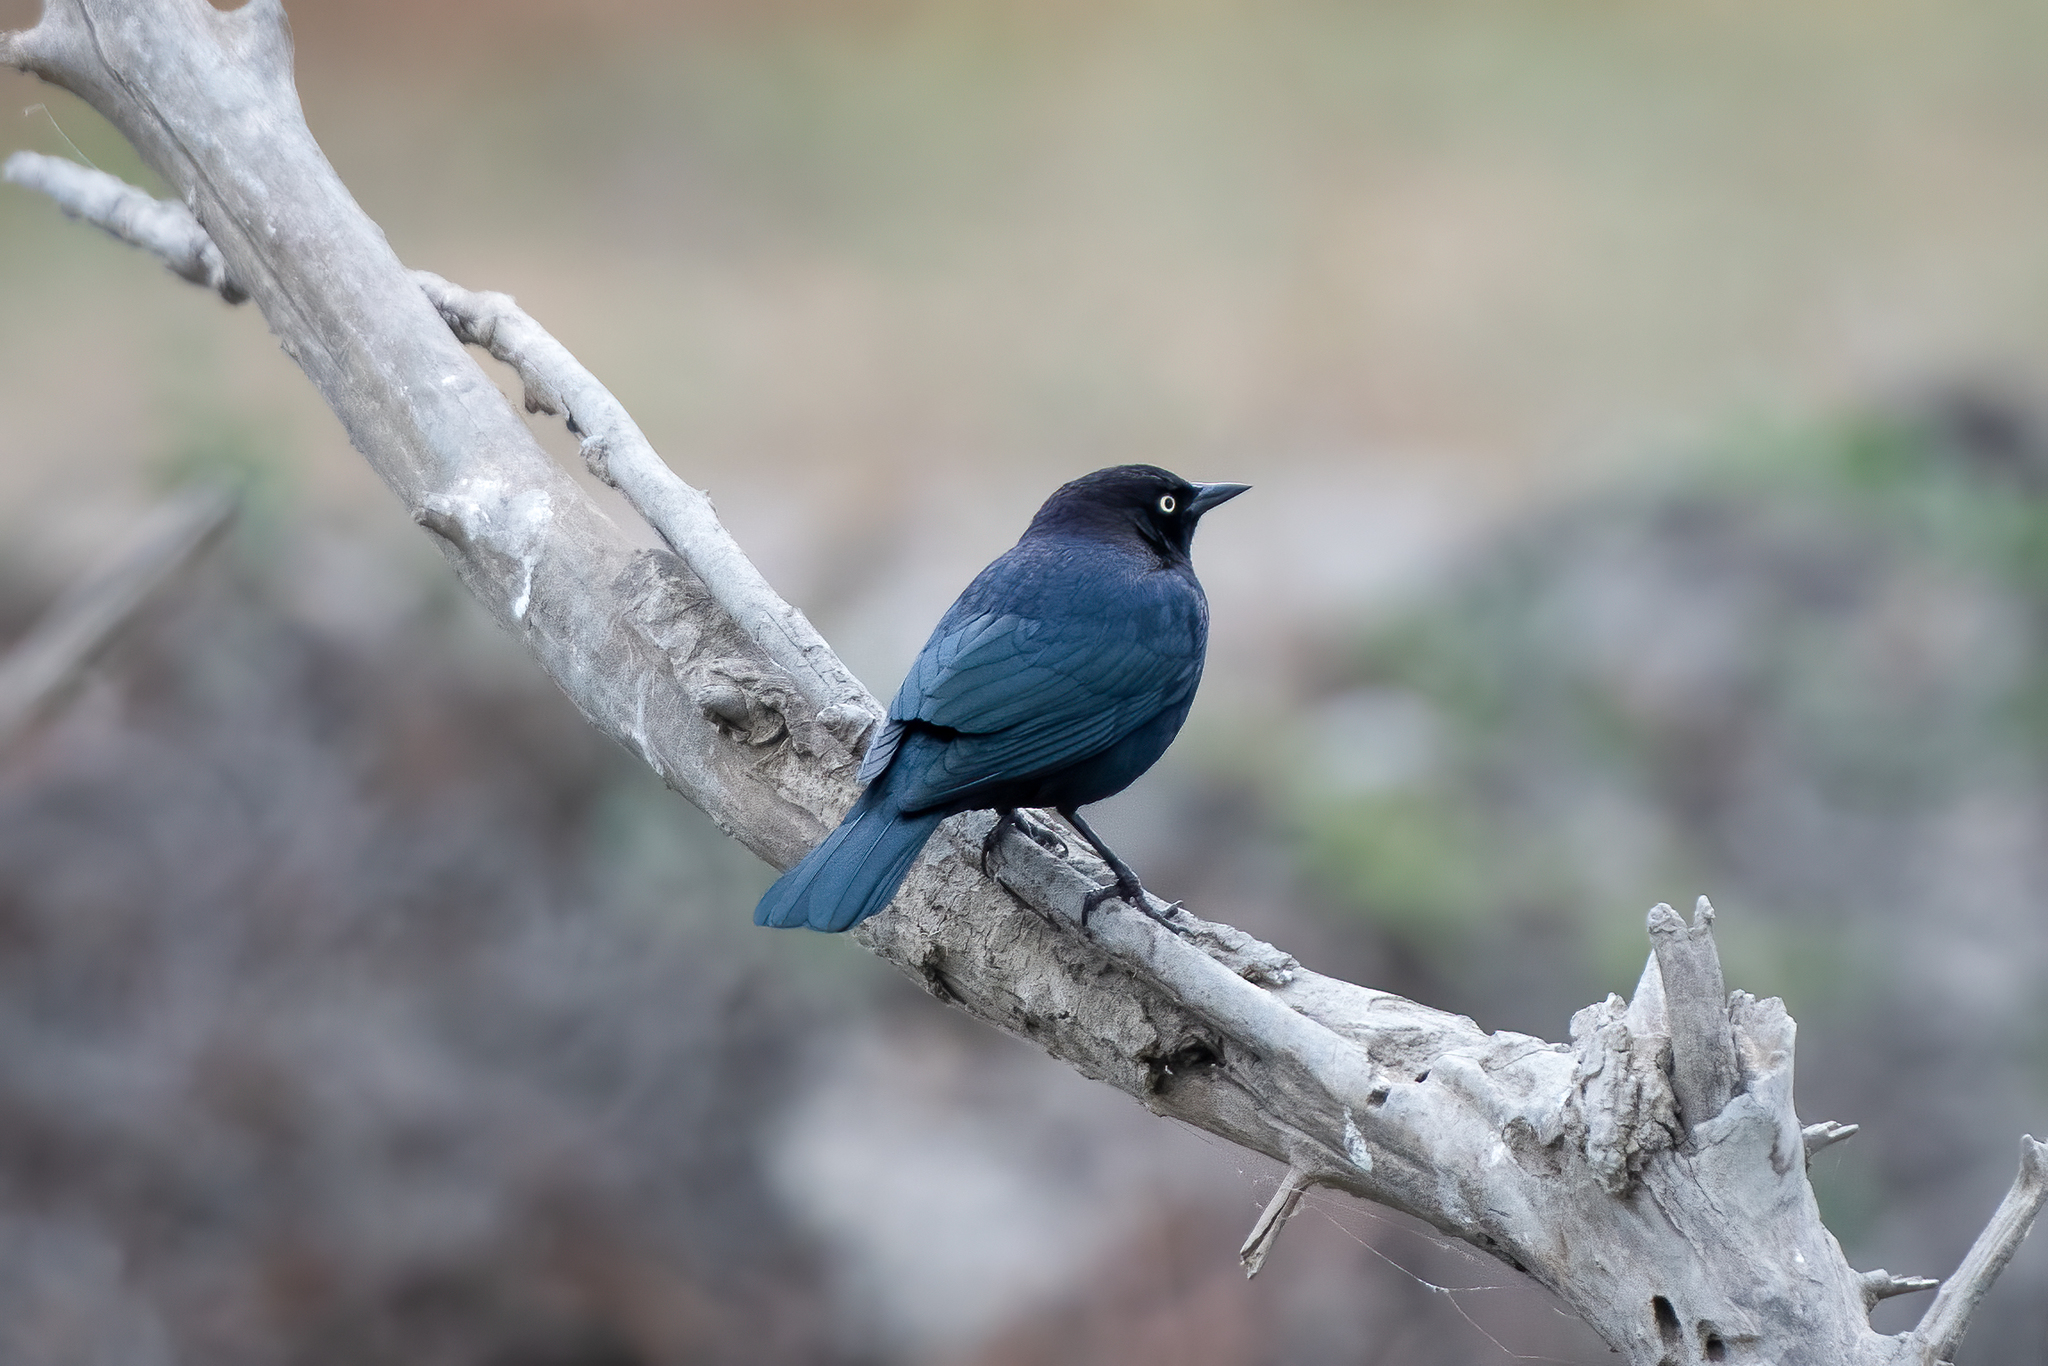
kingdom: Animalia
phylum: Chordata
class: Aves
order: Passeriformes
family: Icteridae
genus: Euphagus
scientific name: Euphagus cyanocephalus
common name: Brewer's blackbird
